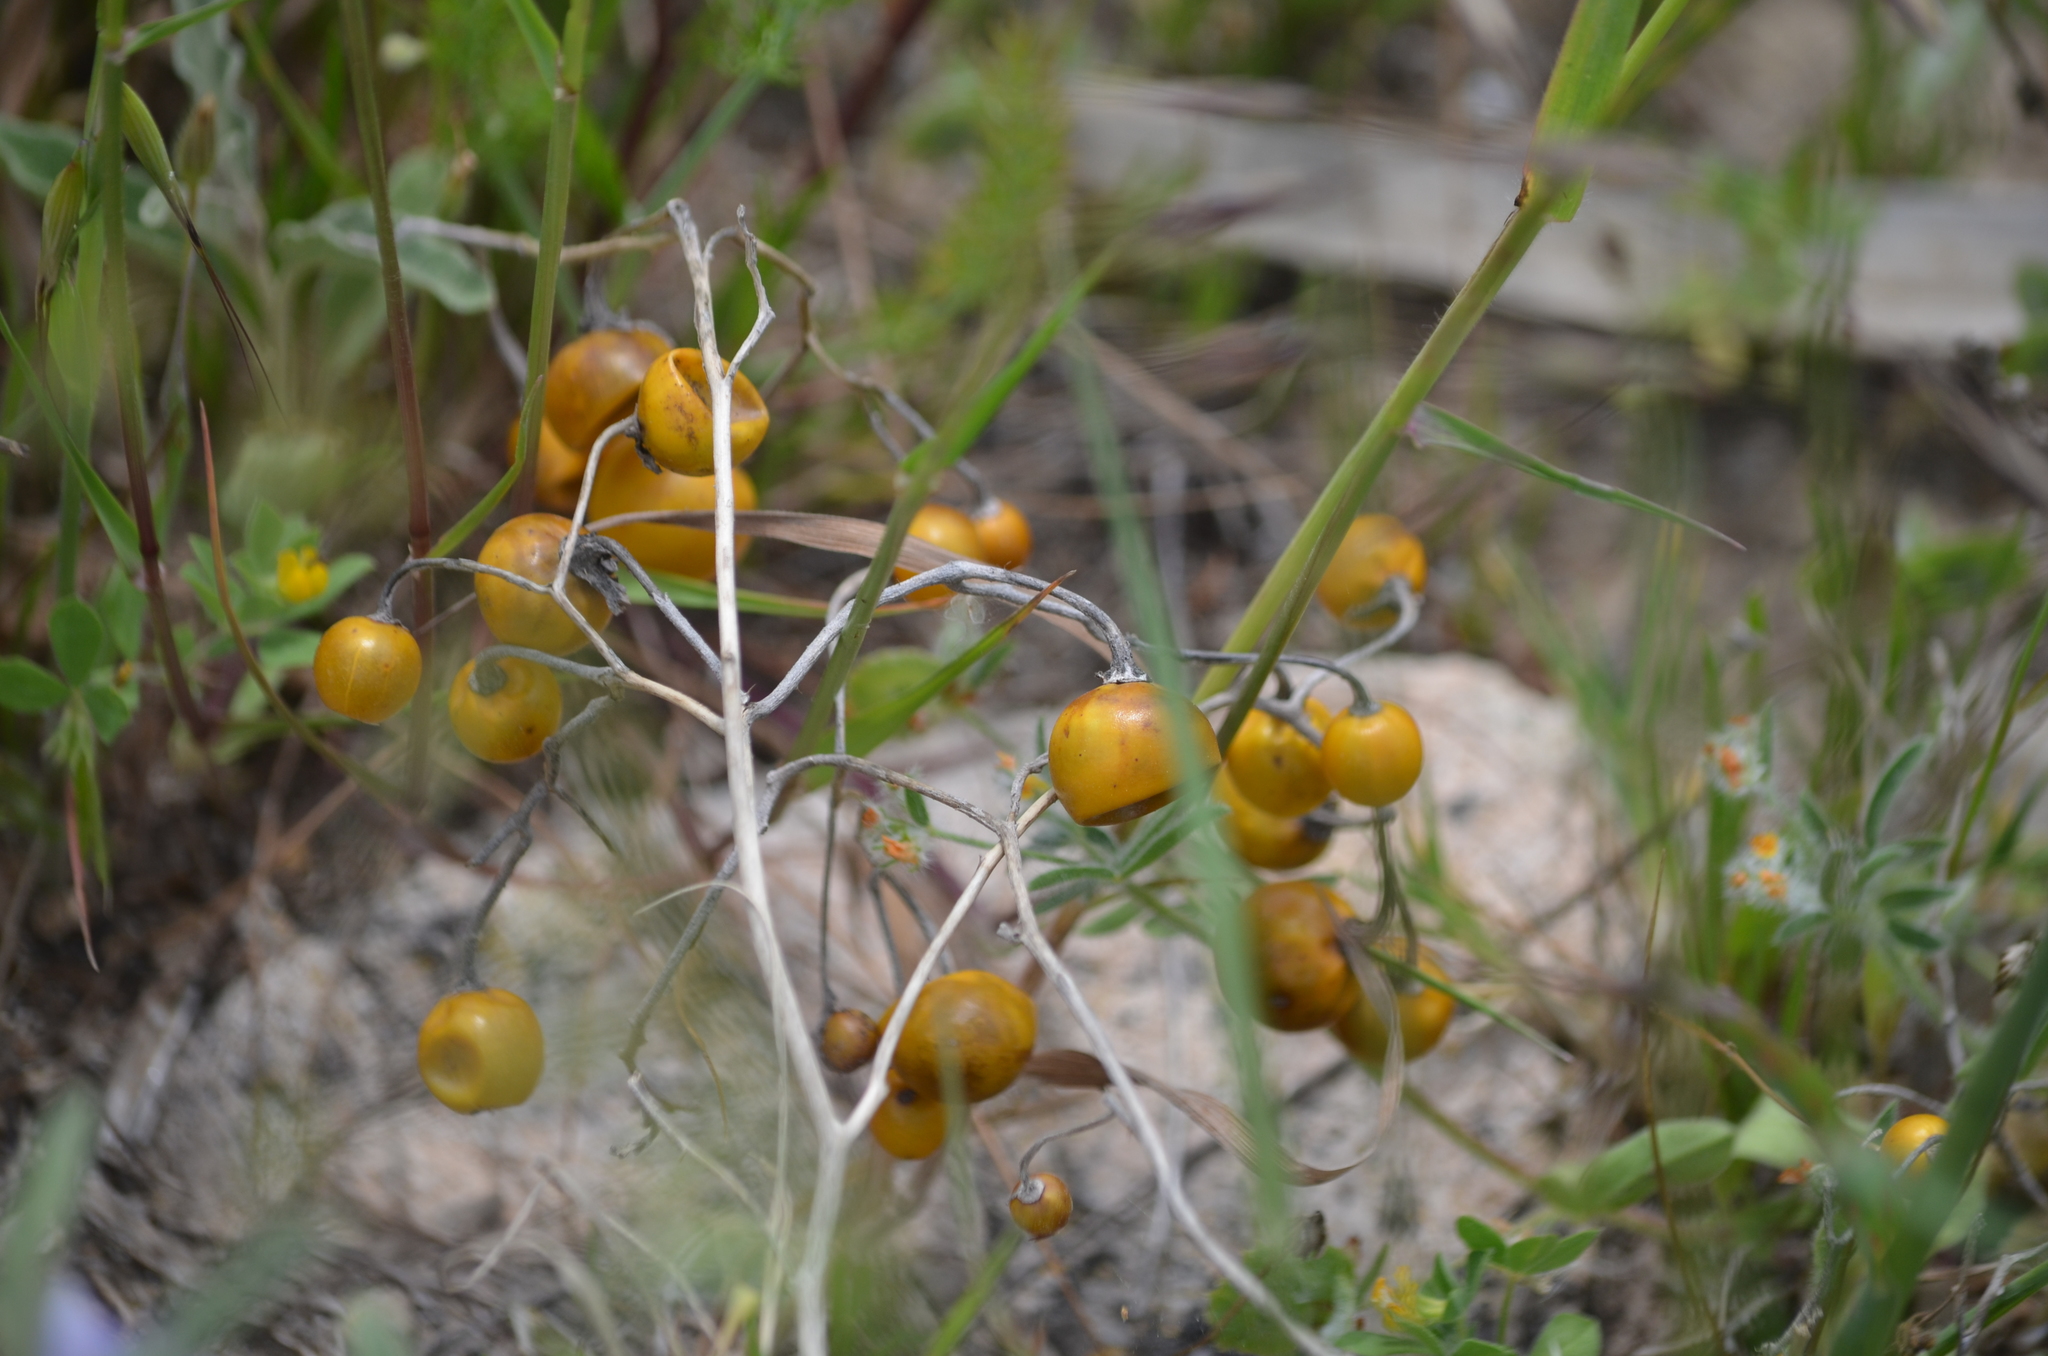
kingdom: Plantae
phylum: Tracheophyta
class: Magnoliopsida
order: Solanales
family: Solanaceae
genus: Solanum
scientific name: Solanum elaeagnifolium
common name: Silverleaf nightshade
